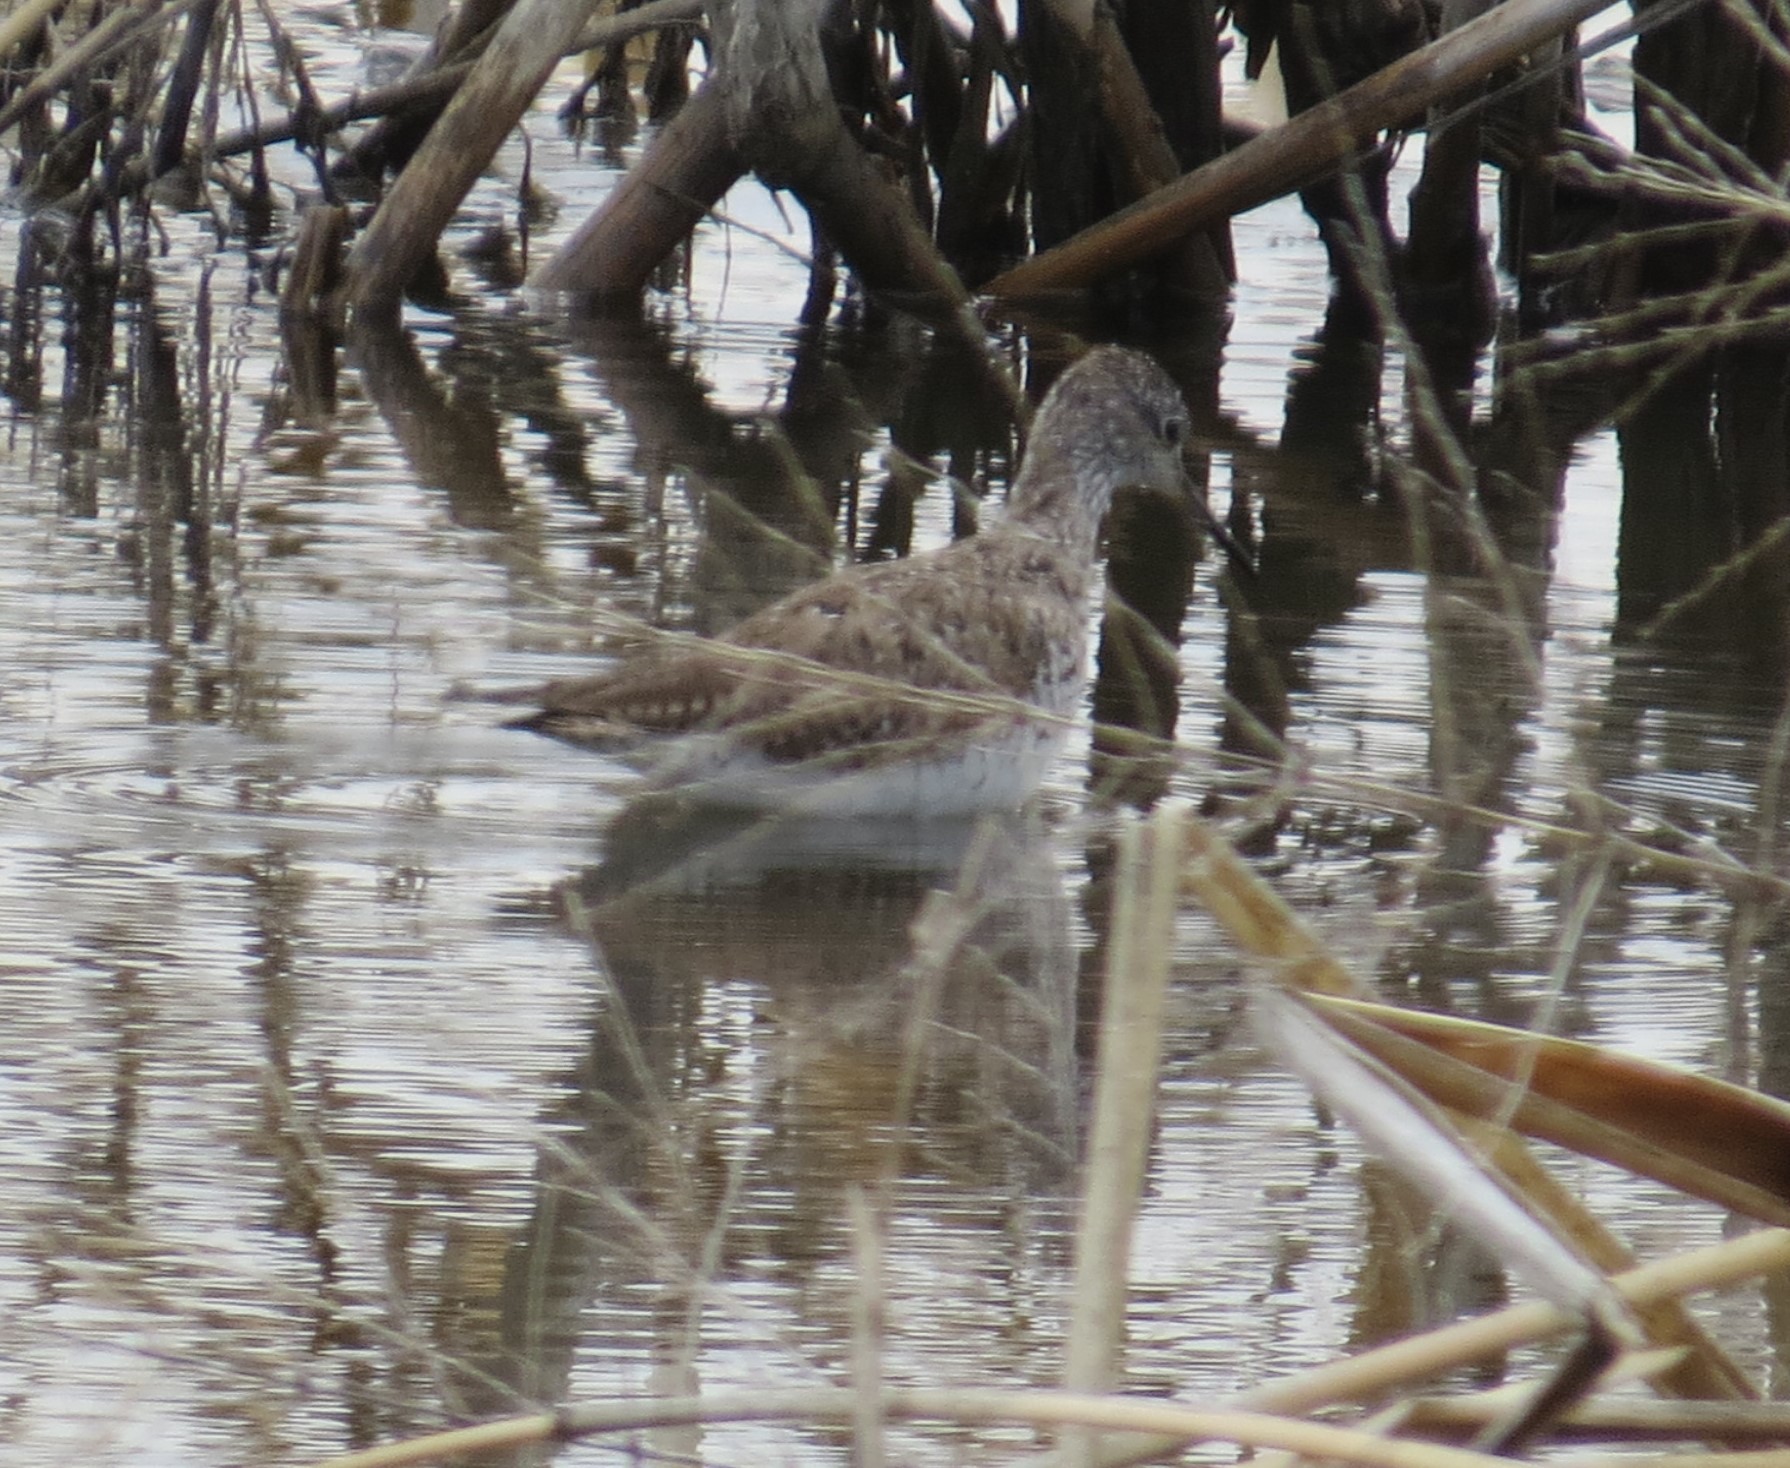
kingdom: Animalia
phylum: Chordata
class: Aves
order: Charadriiformes
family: Scolopacidae
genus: Tringa
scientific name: Tringa flavipes
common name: Lesser yellowlegs
